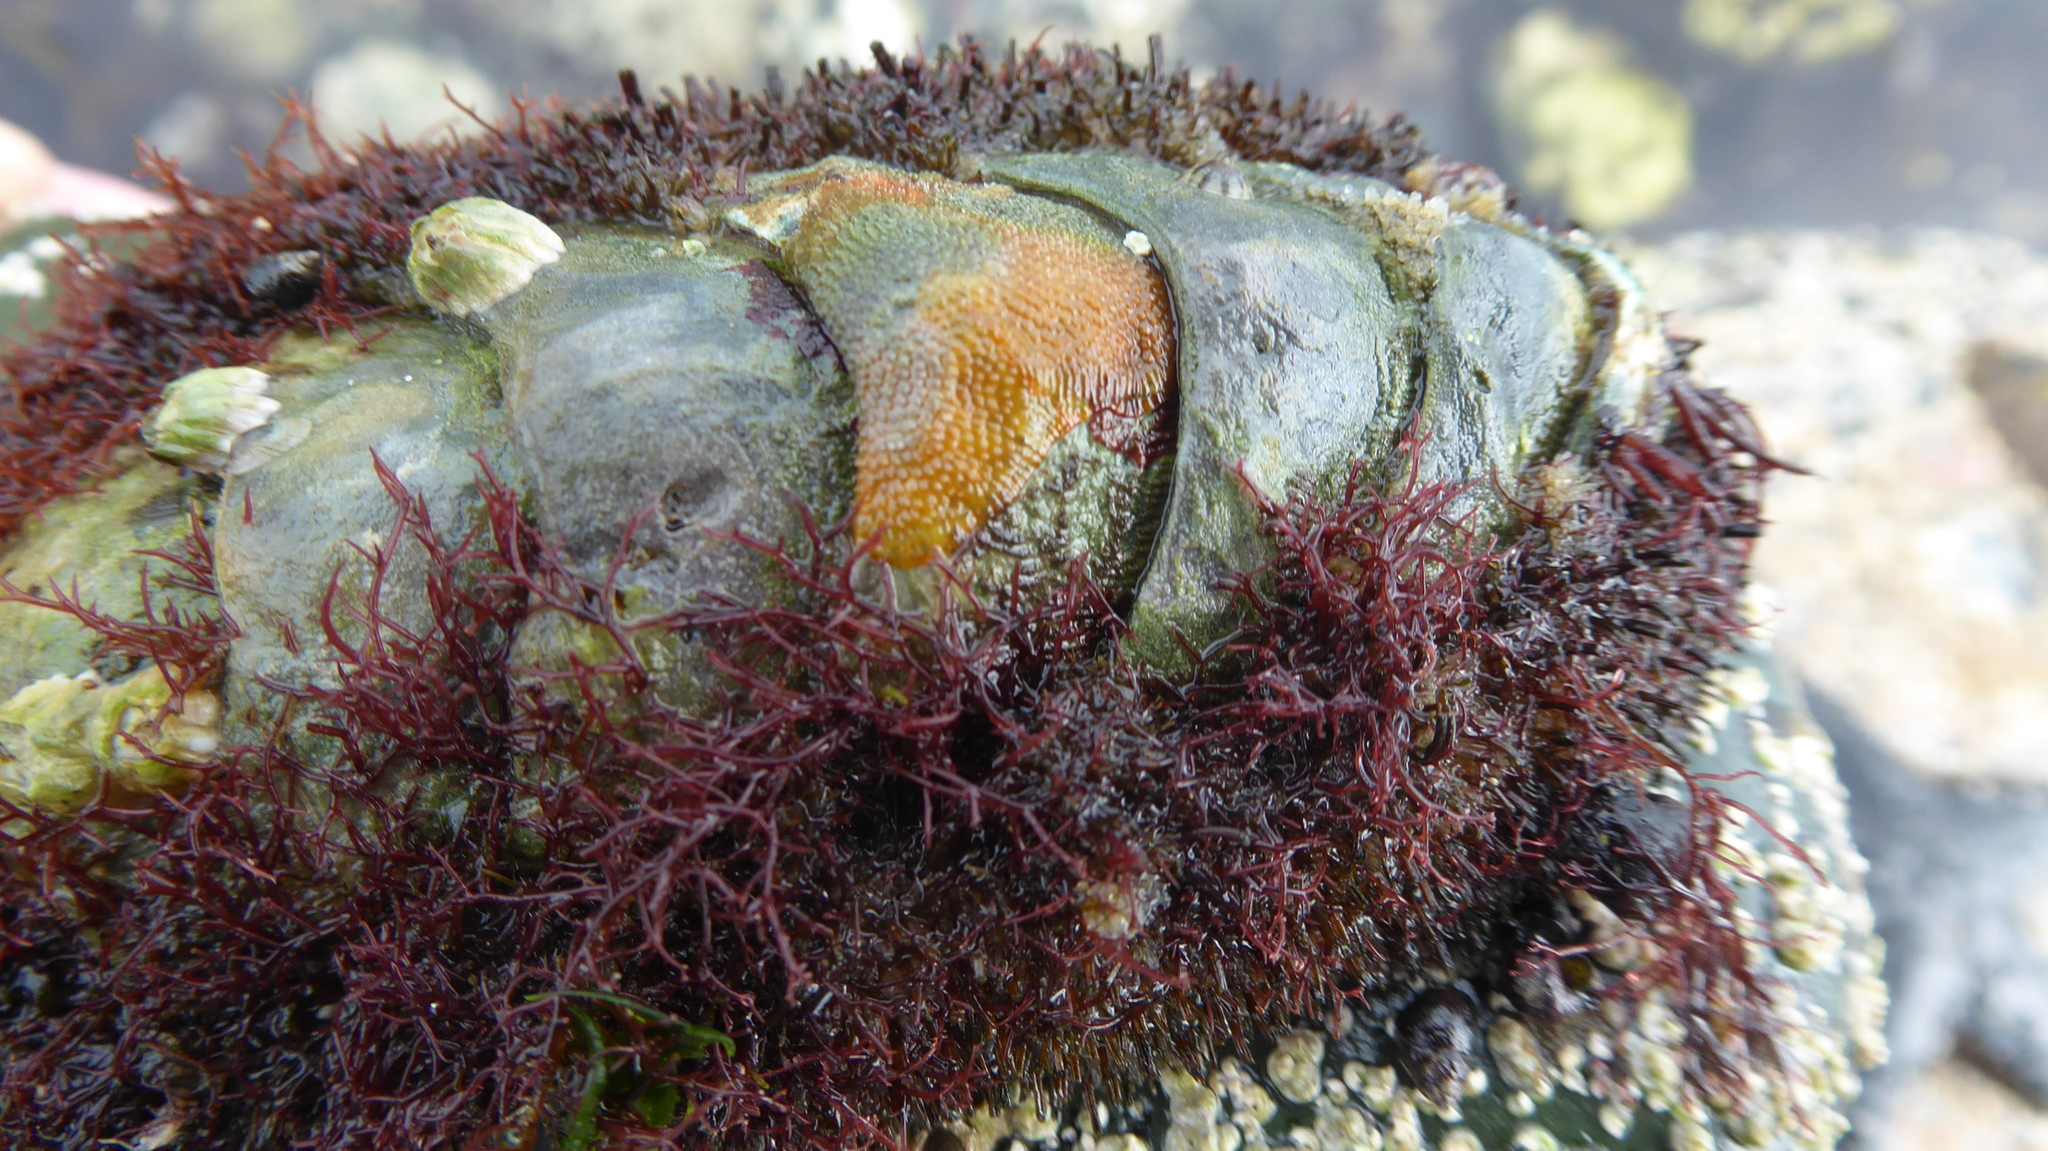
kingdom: Animalia
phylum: Mollusca
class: Polyplacophora
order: Chitonida
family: Mopaliidae
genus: Mopalia
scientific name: Mopalia muscosa
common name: Mossy chiton
